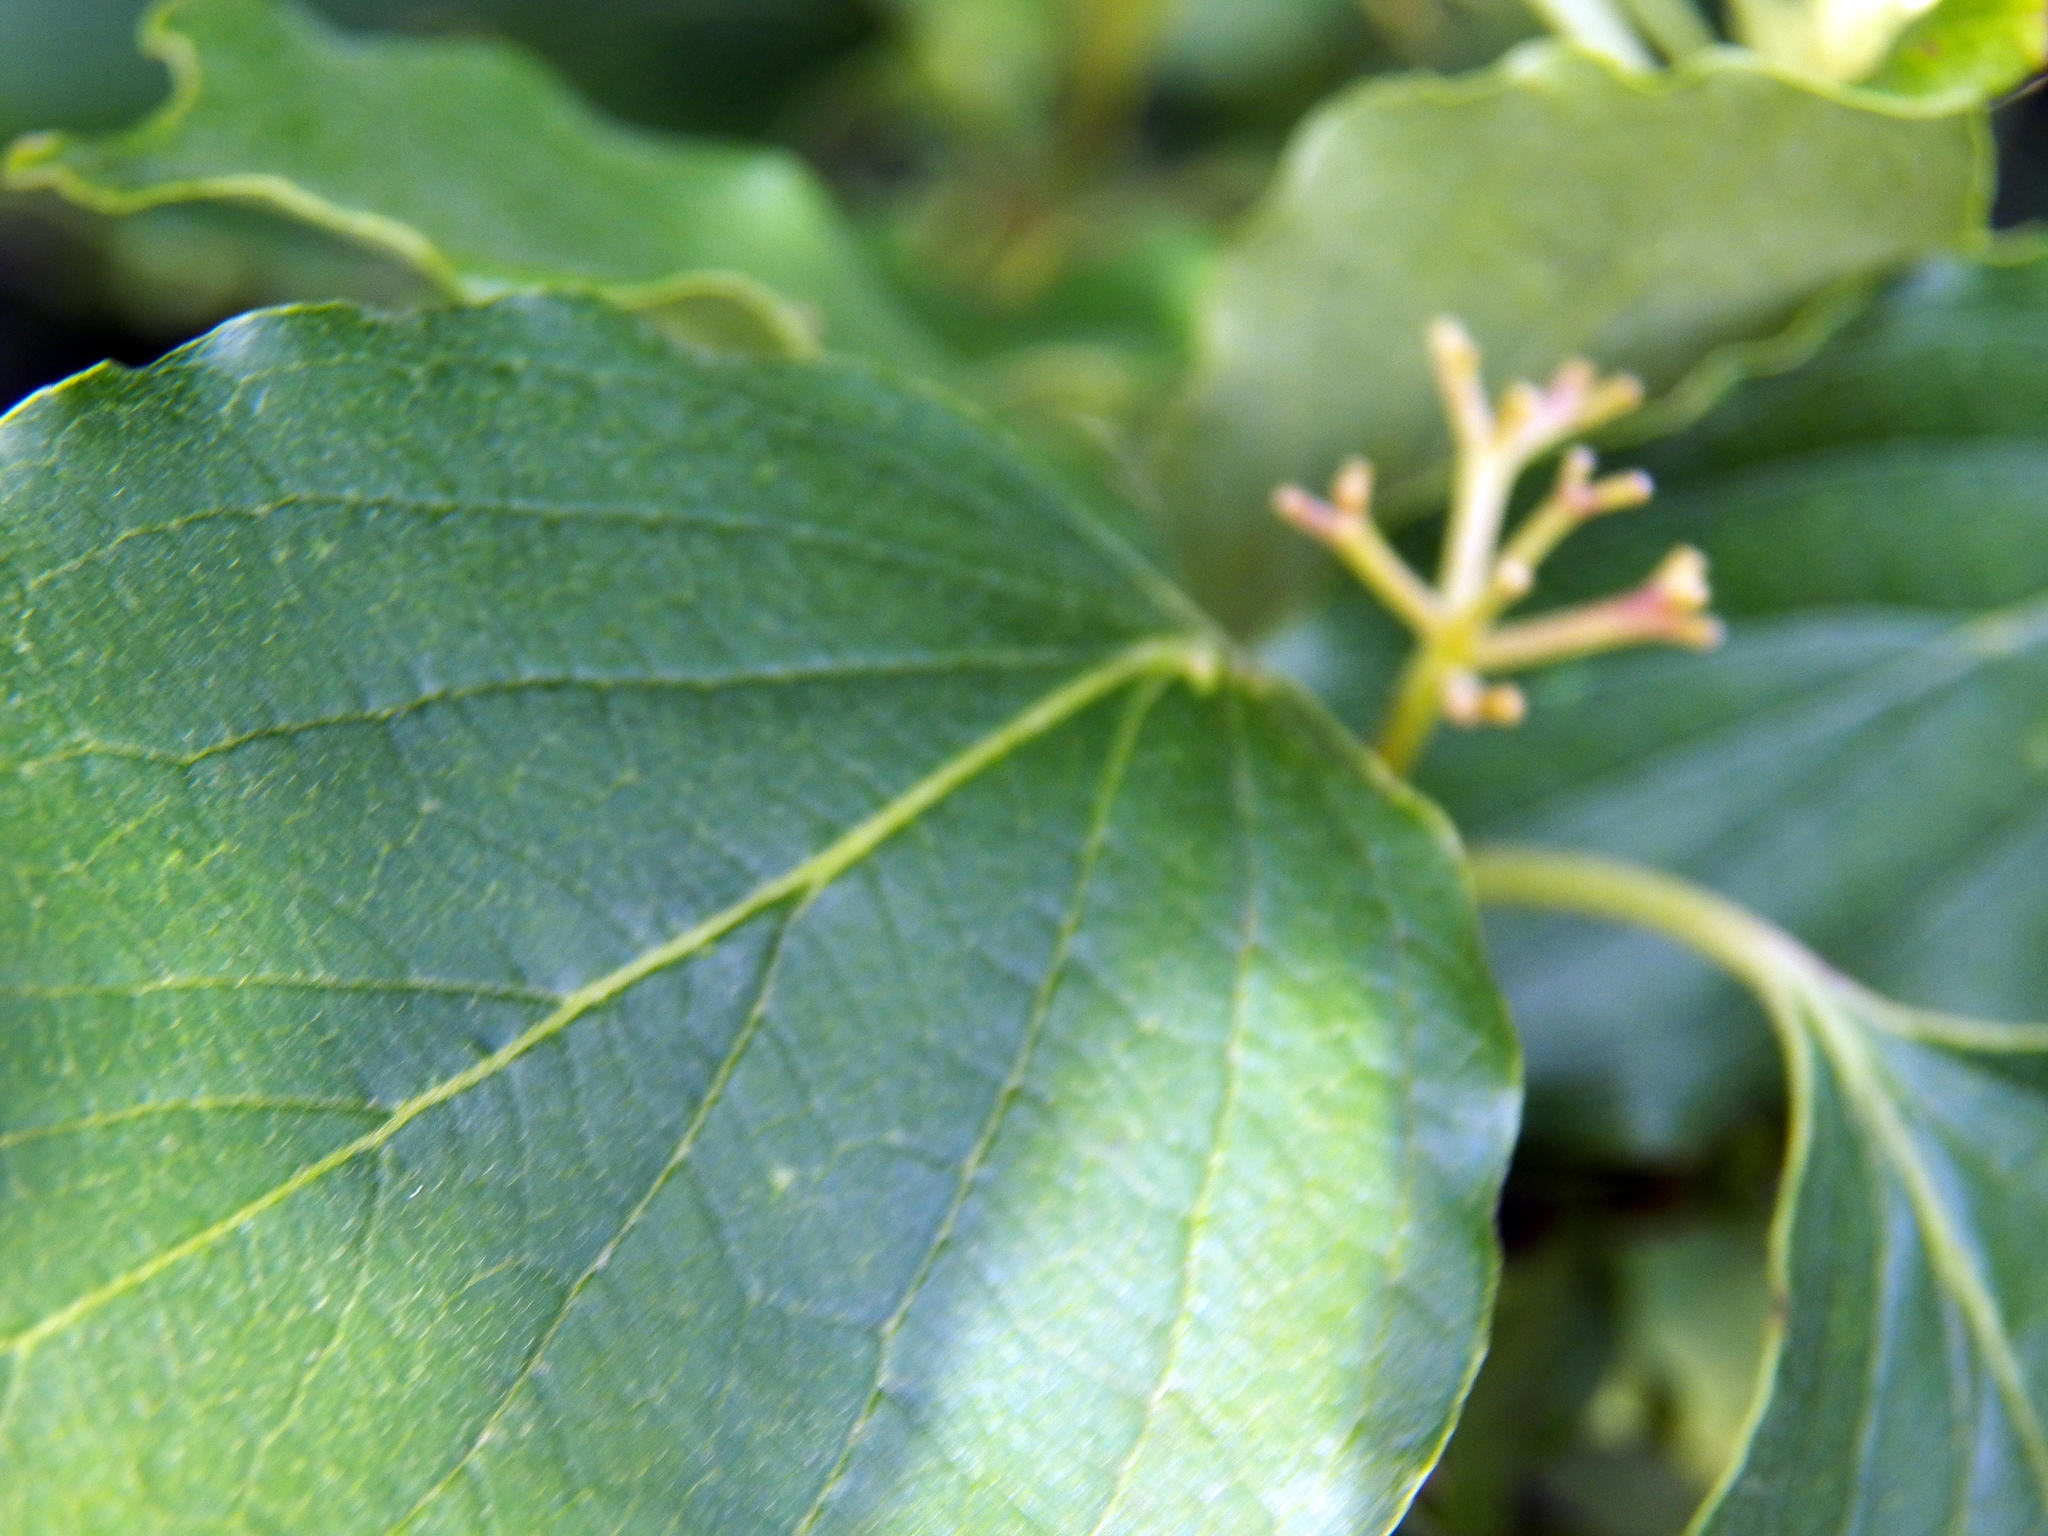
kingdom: Plantae
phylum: Tracheophyta
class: Magnoliopsida
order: Cornales
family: Cornaceae
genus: Cornus
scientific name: Cornus drummondii
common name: Rough-leaf dogwood
